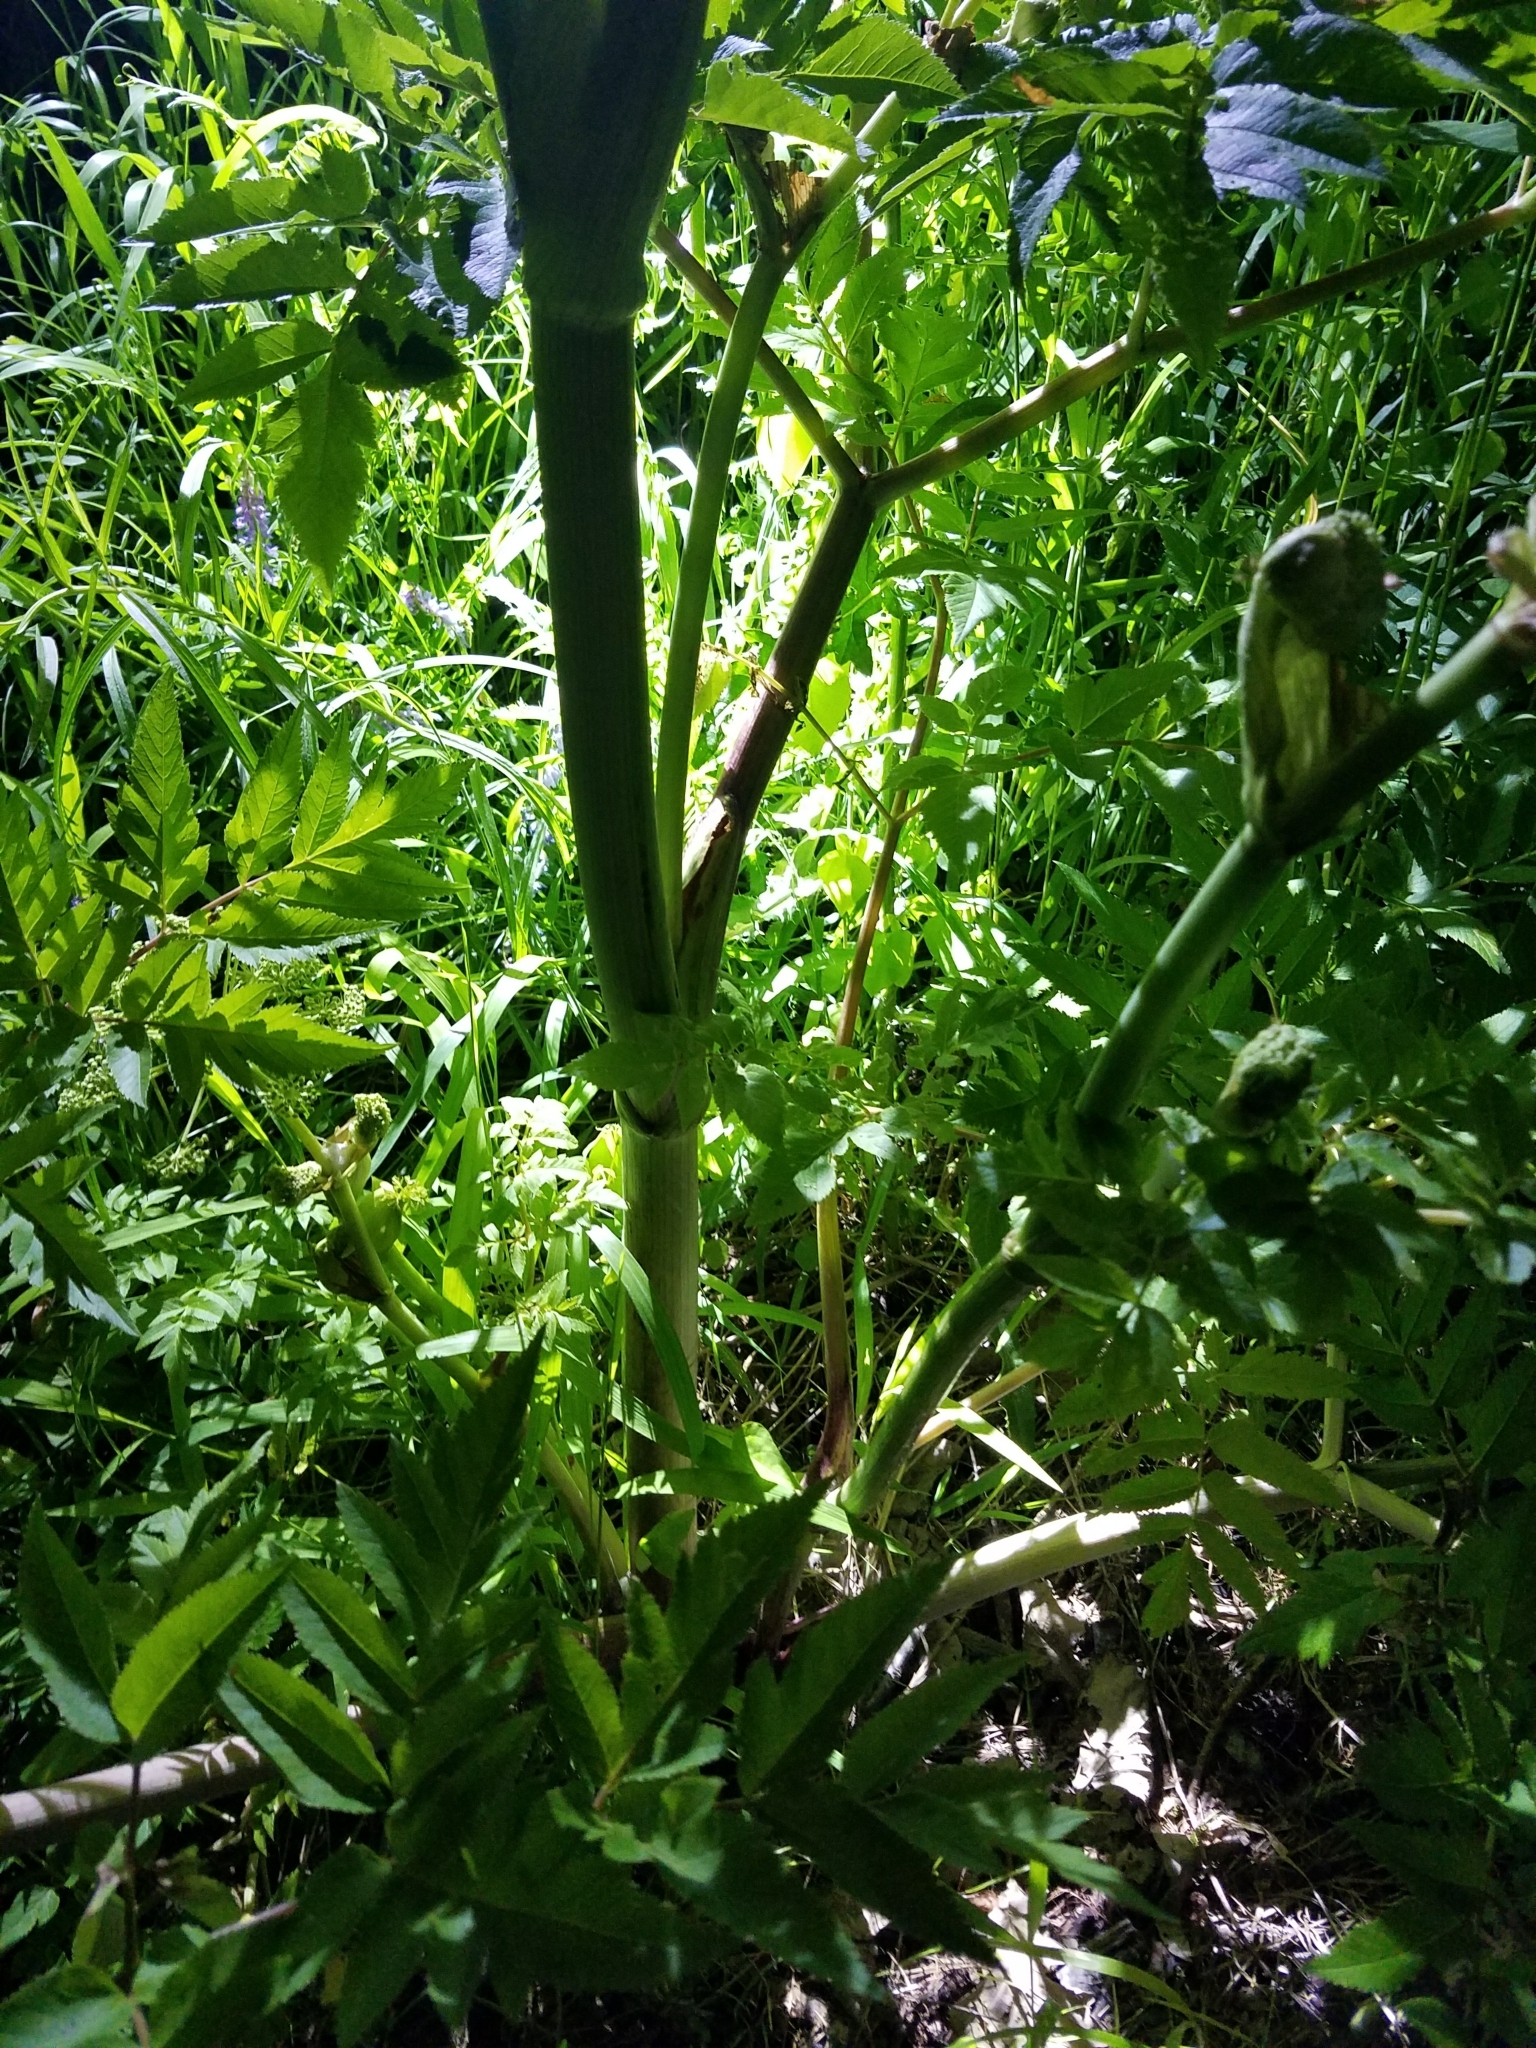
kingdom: Plantae
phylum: Tracheophyta
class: Magnoliopsida
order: Apiales
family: Apiaceae
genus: Angelica
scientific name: Angelica atropurpurea
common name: Great angelica
